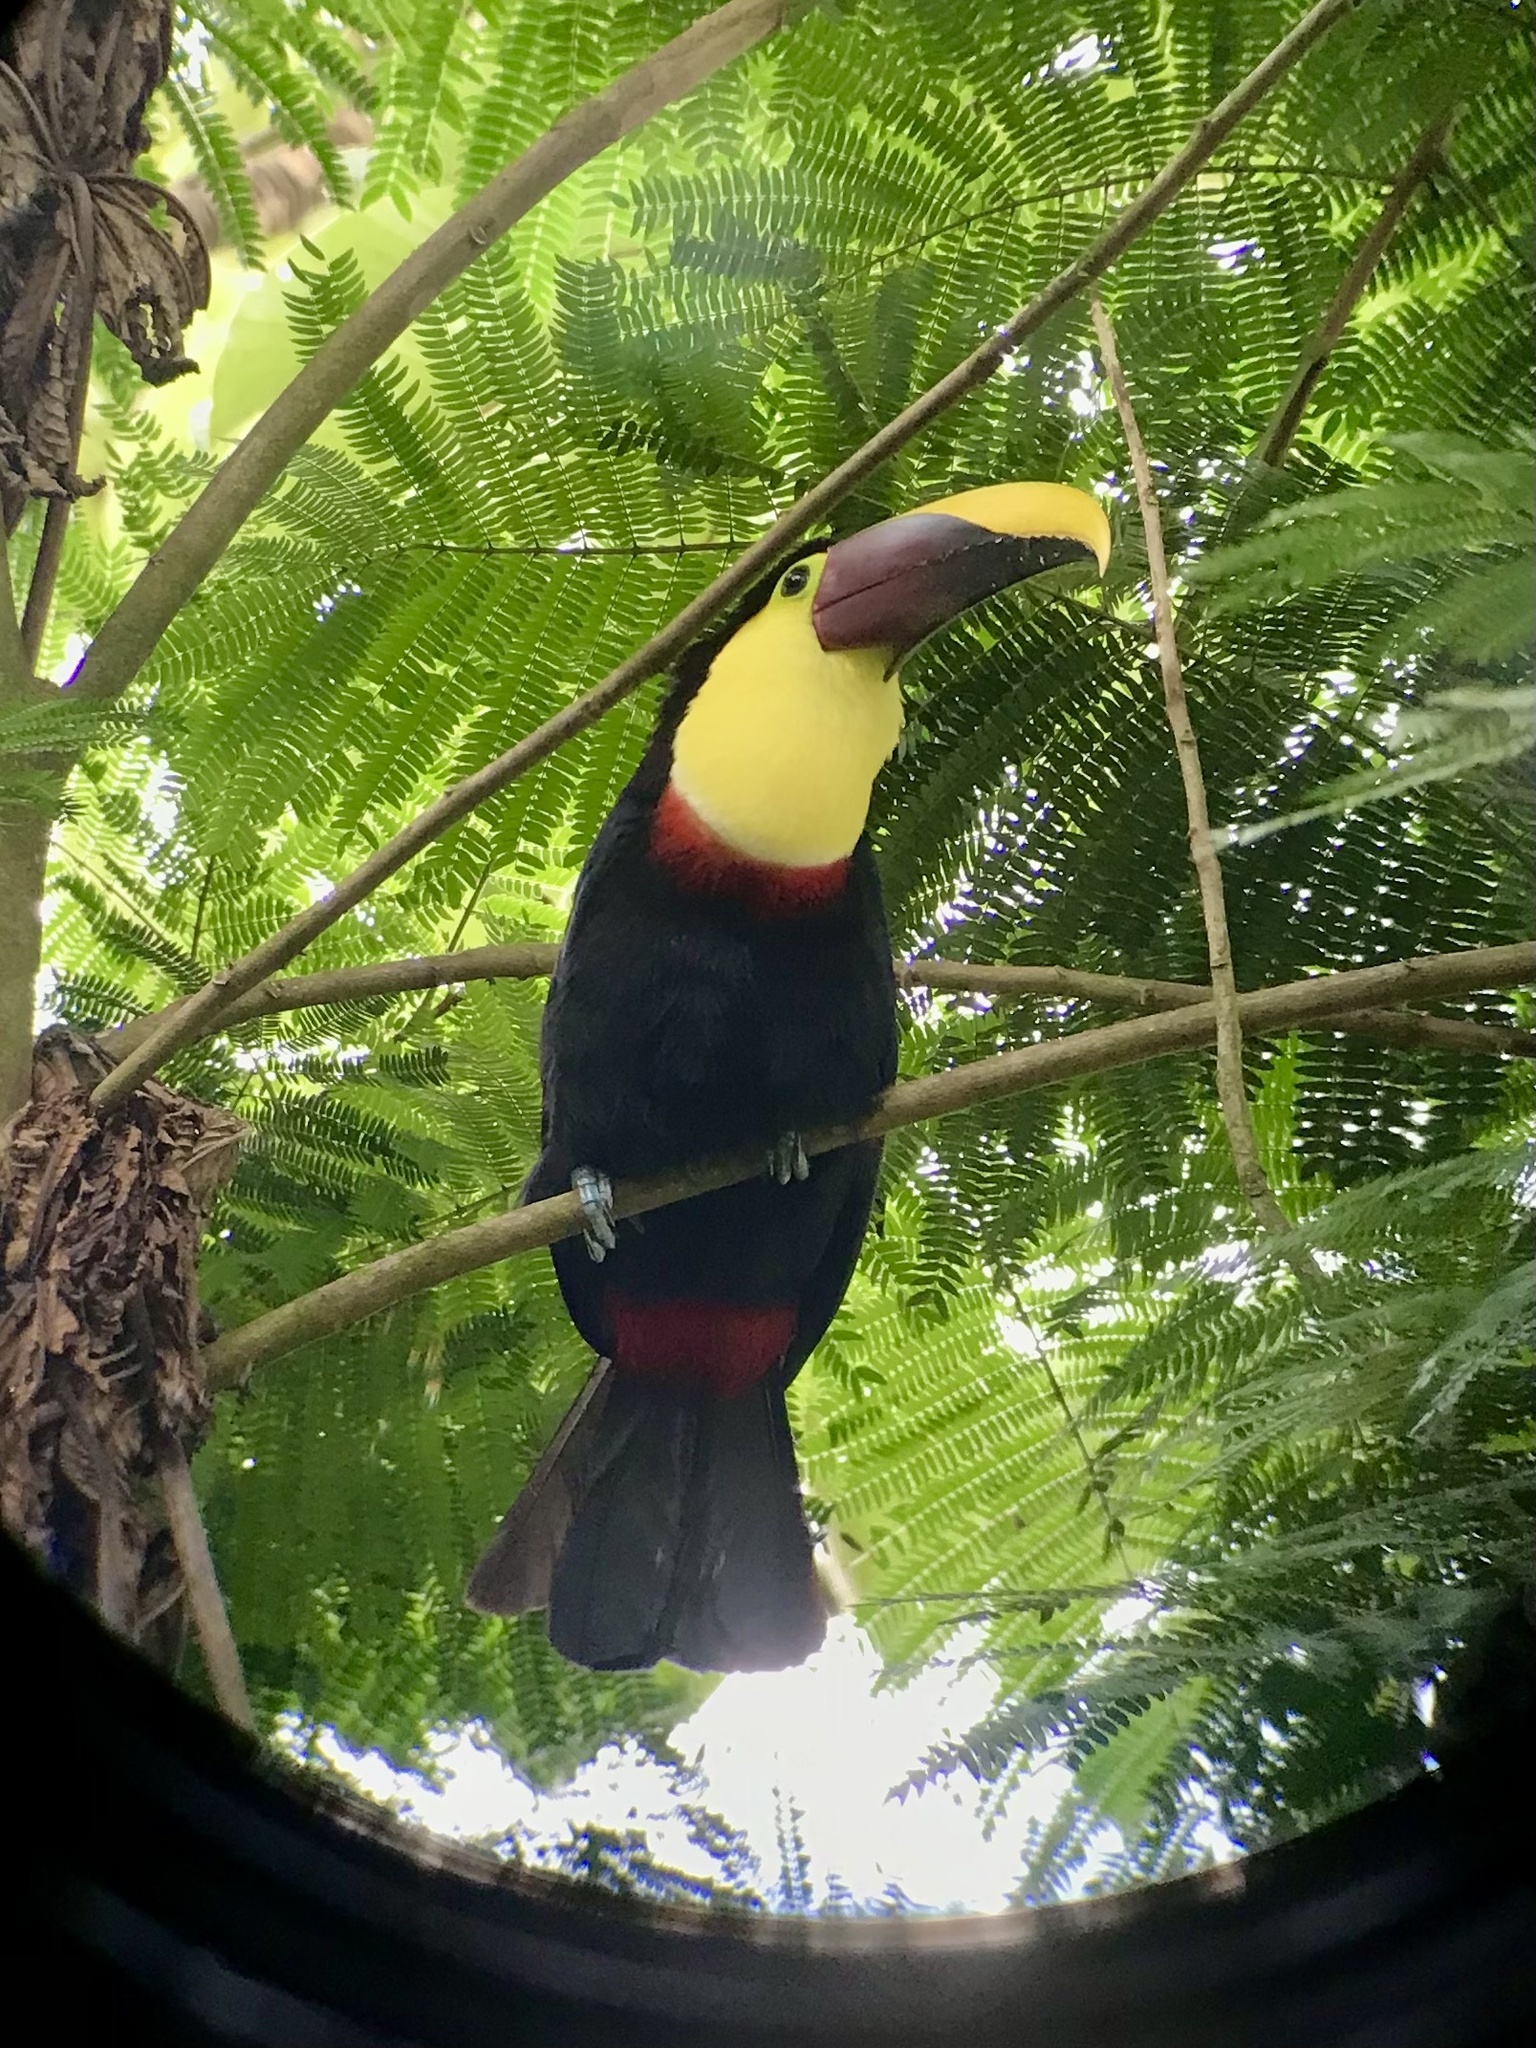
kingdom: Animalia
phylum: Chordata
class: Aves
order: Piciformes
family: Ramphastidae
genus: Ramphastos
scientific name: Ramphastos ambiguus
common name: Yellow-throated toucan
